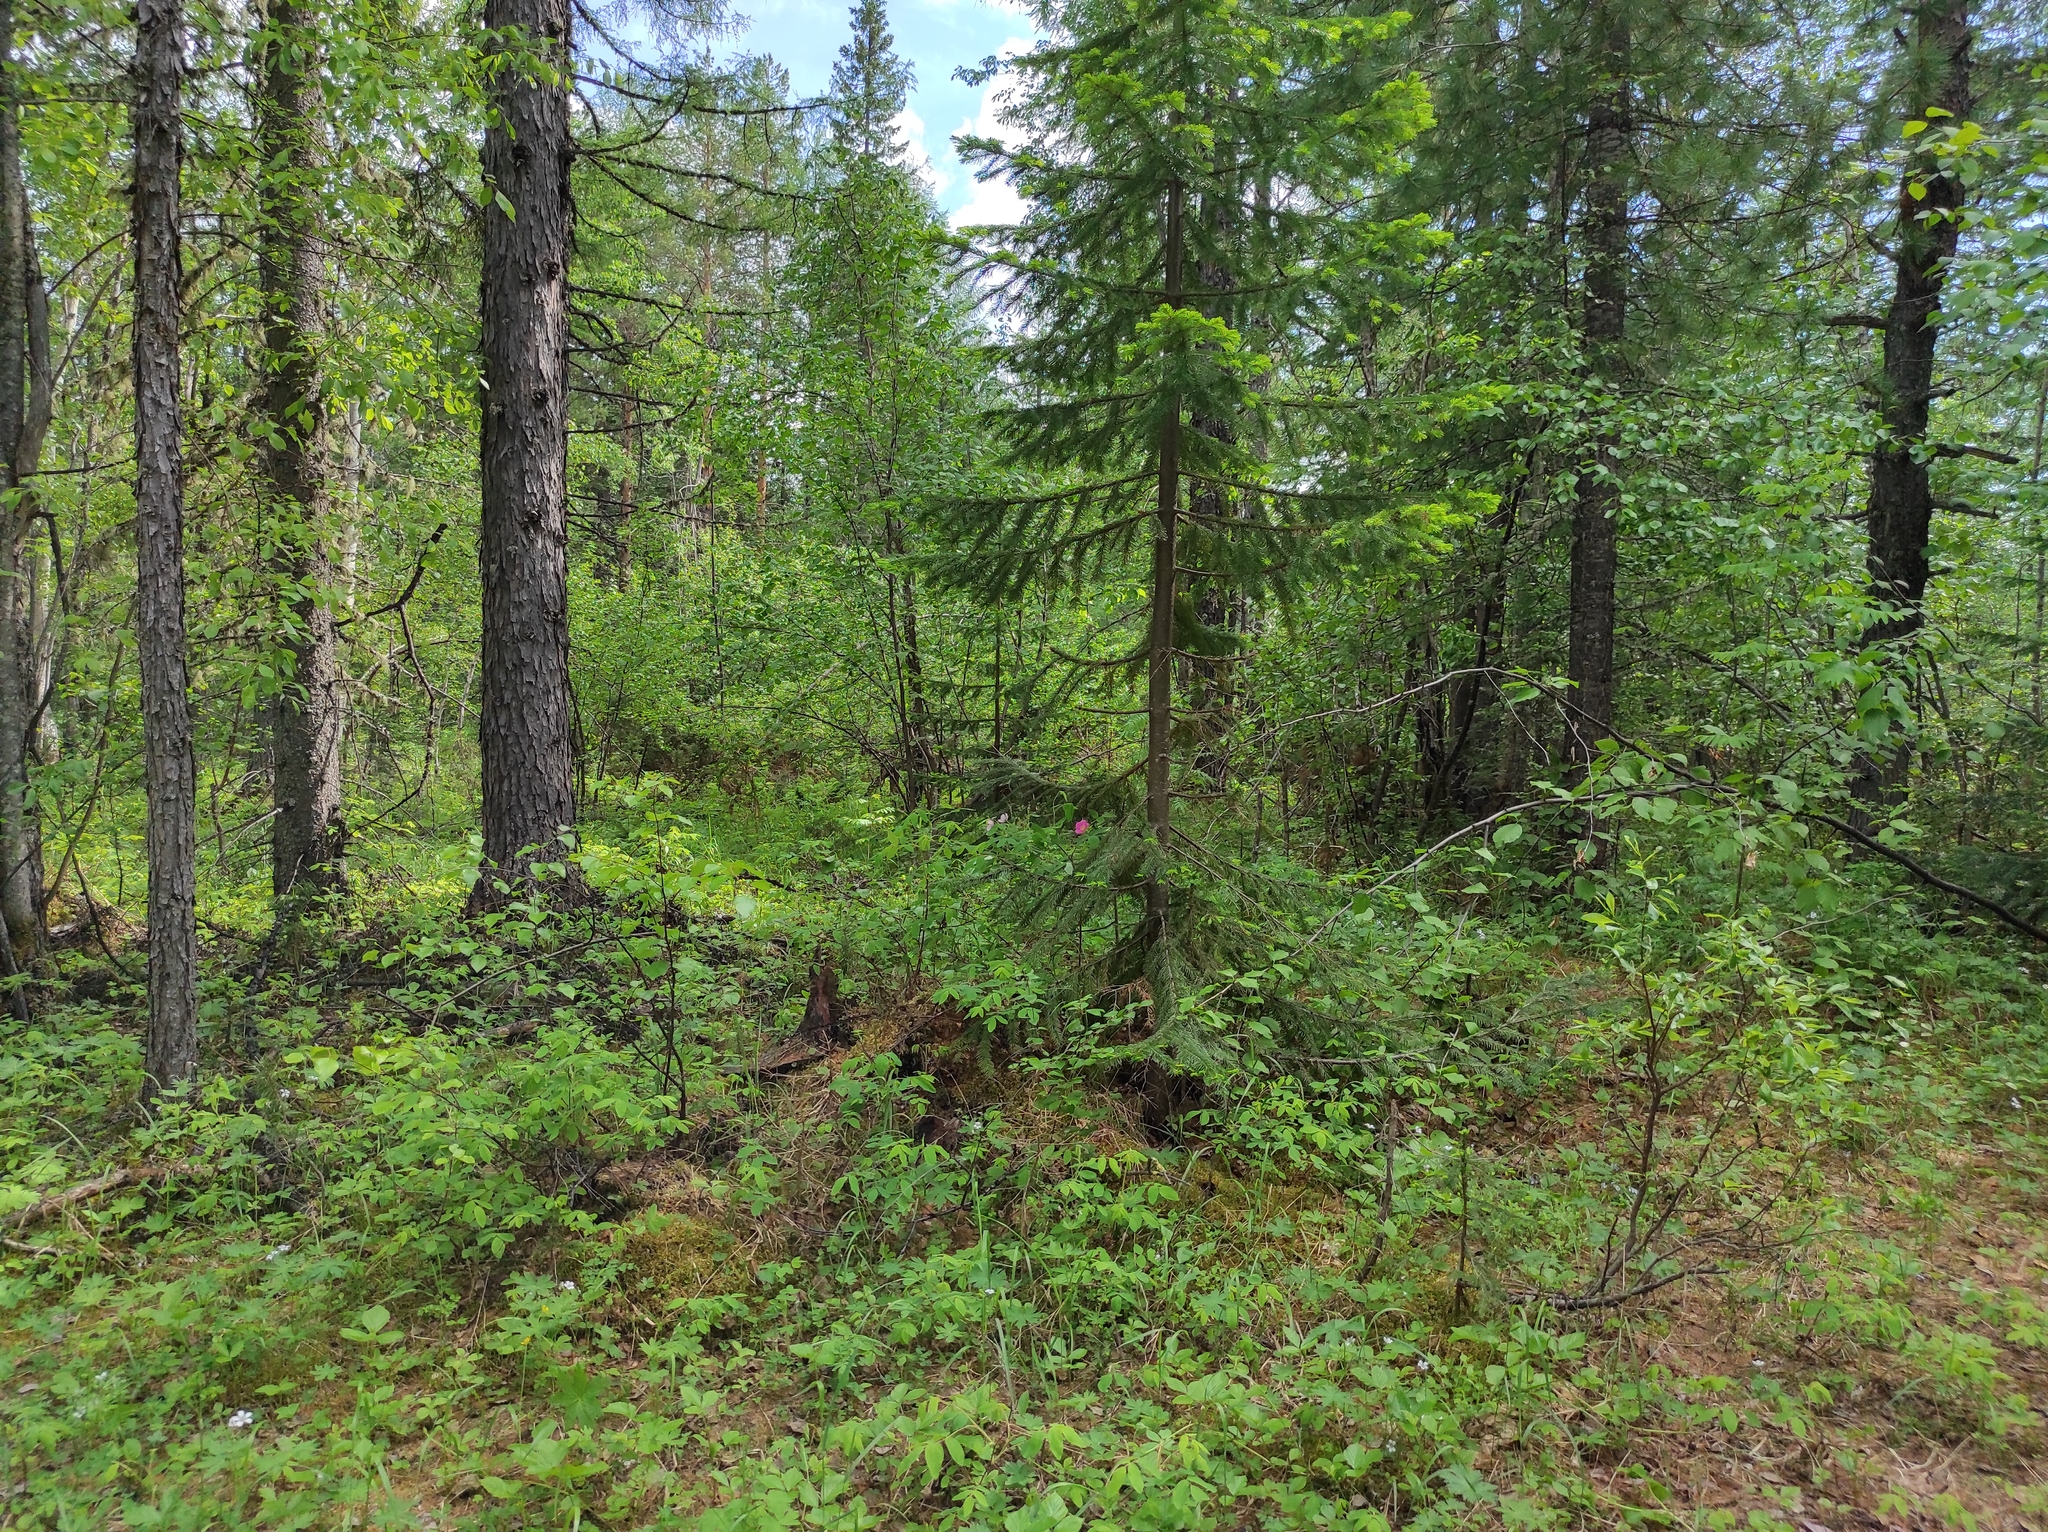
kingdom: Plantae
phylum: Tracheophyta
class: Pinopsida
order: Pinales
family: Pinaceae
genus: Abies
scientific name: Abies sibirica
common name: Siberian fir
